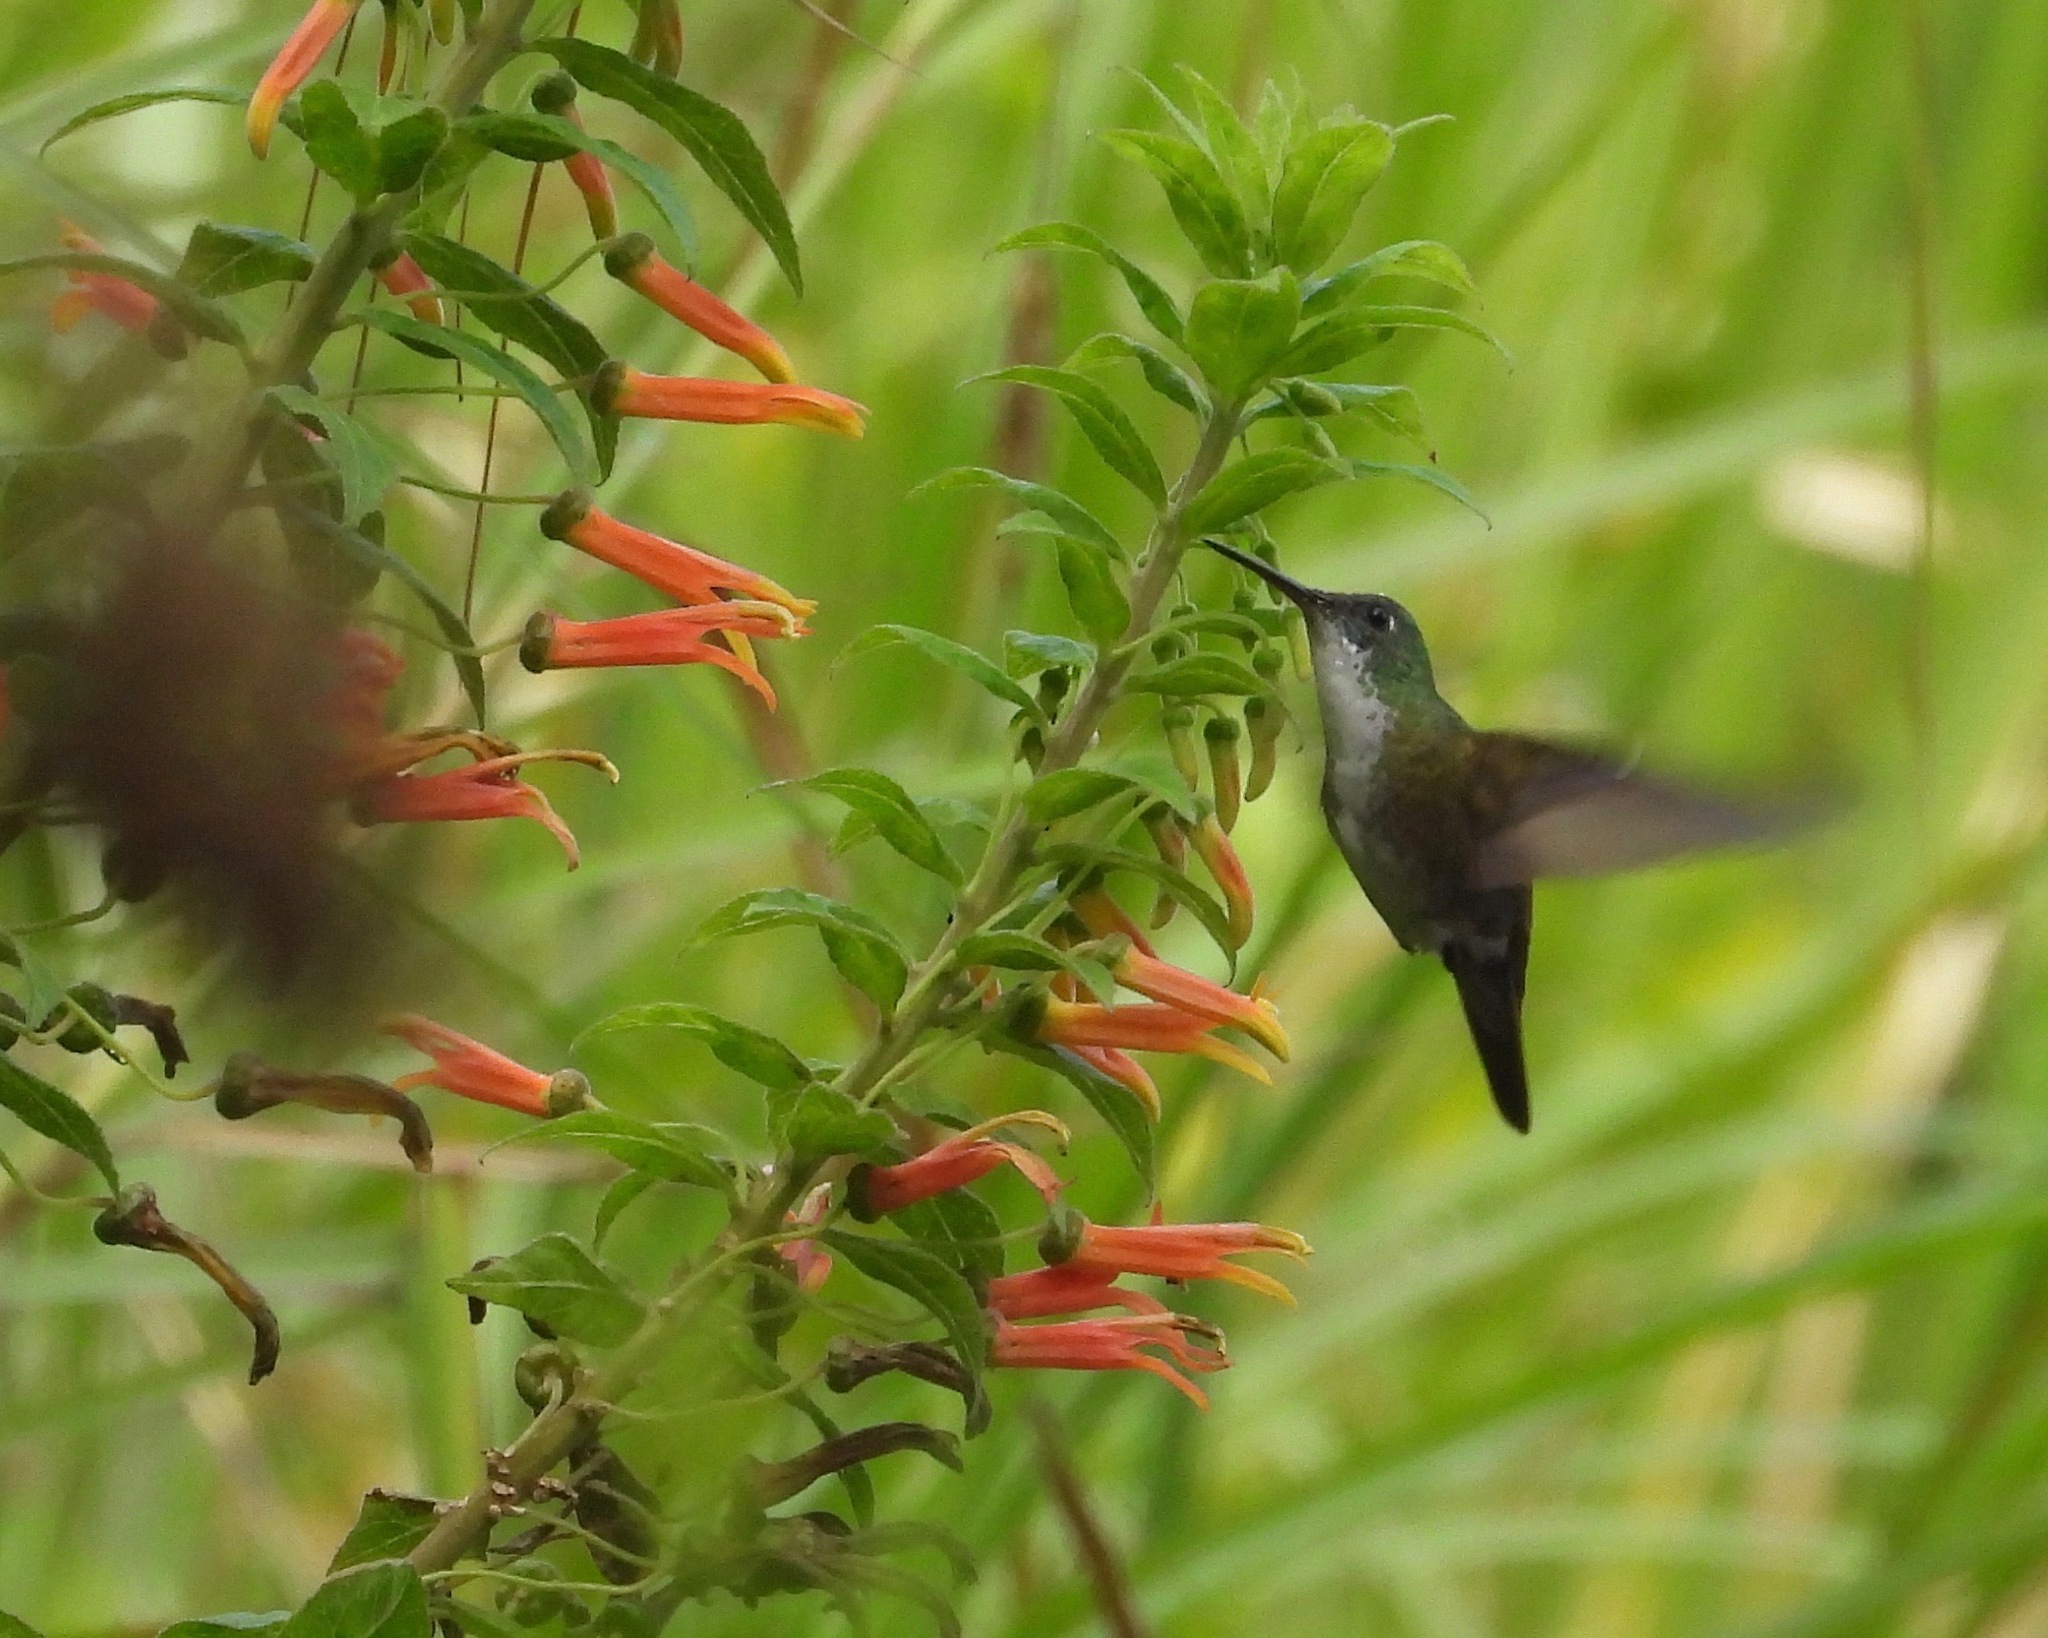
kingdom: Animalia
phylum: Chordata
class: Aves
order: Apodiformes
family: Trochilidae
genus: Saucerottia
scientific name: Saucerottia cyanocephala
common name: Azure-crowned hummingbird
